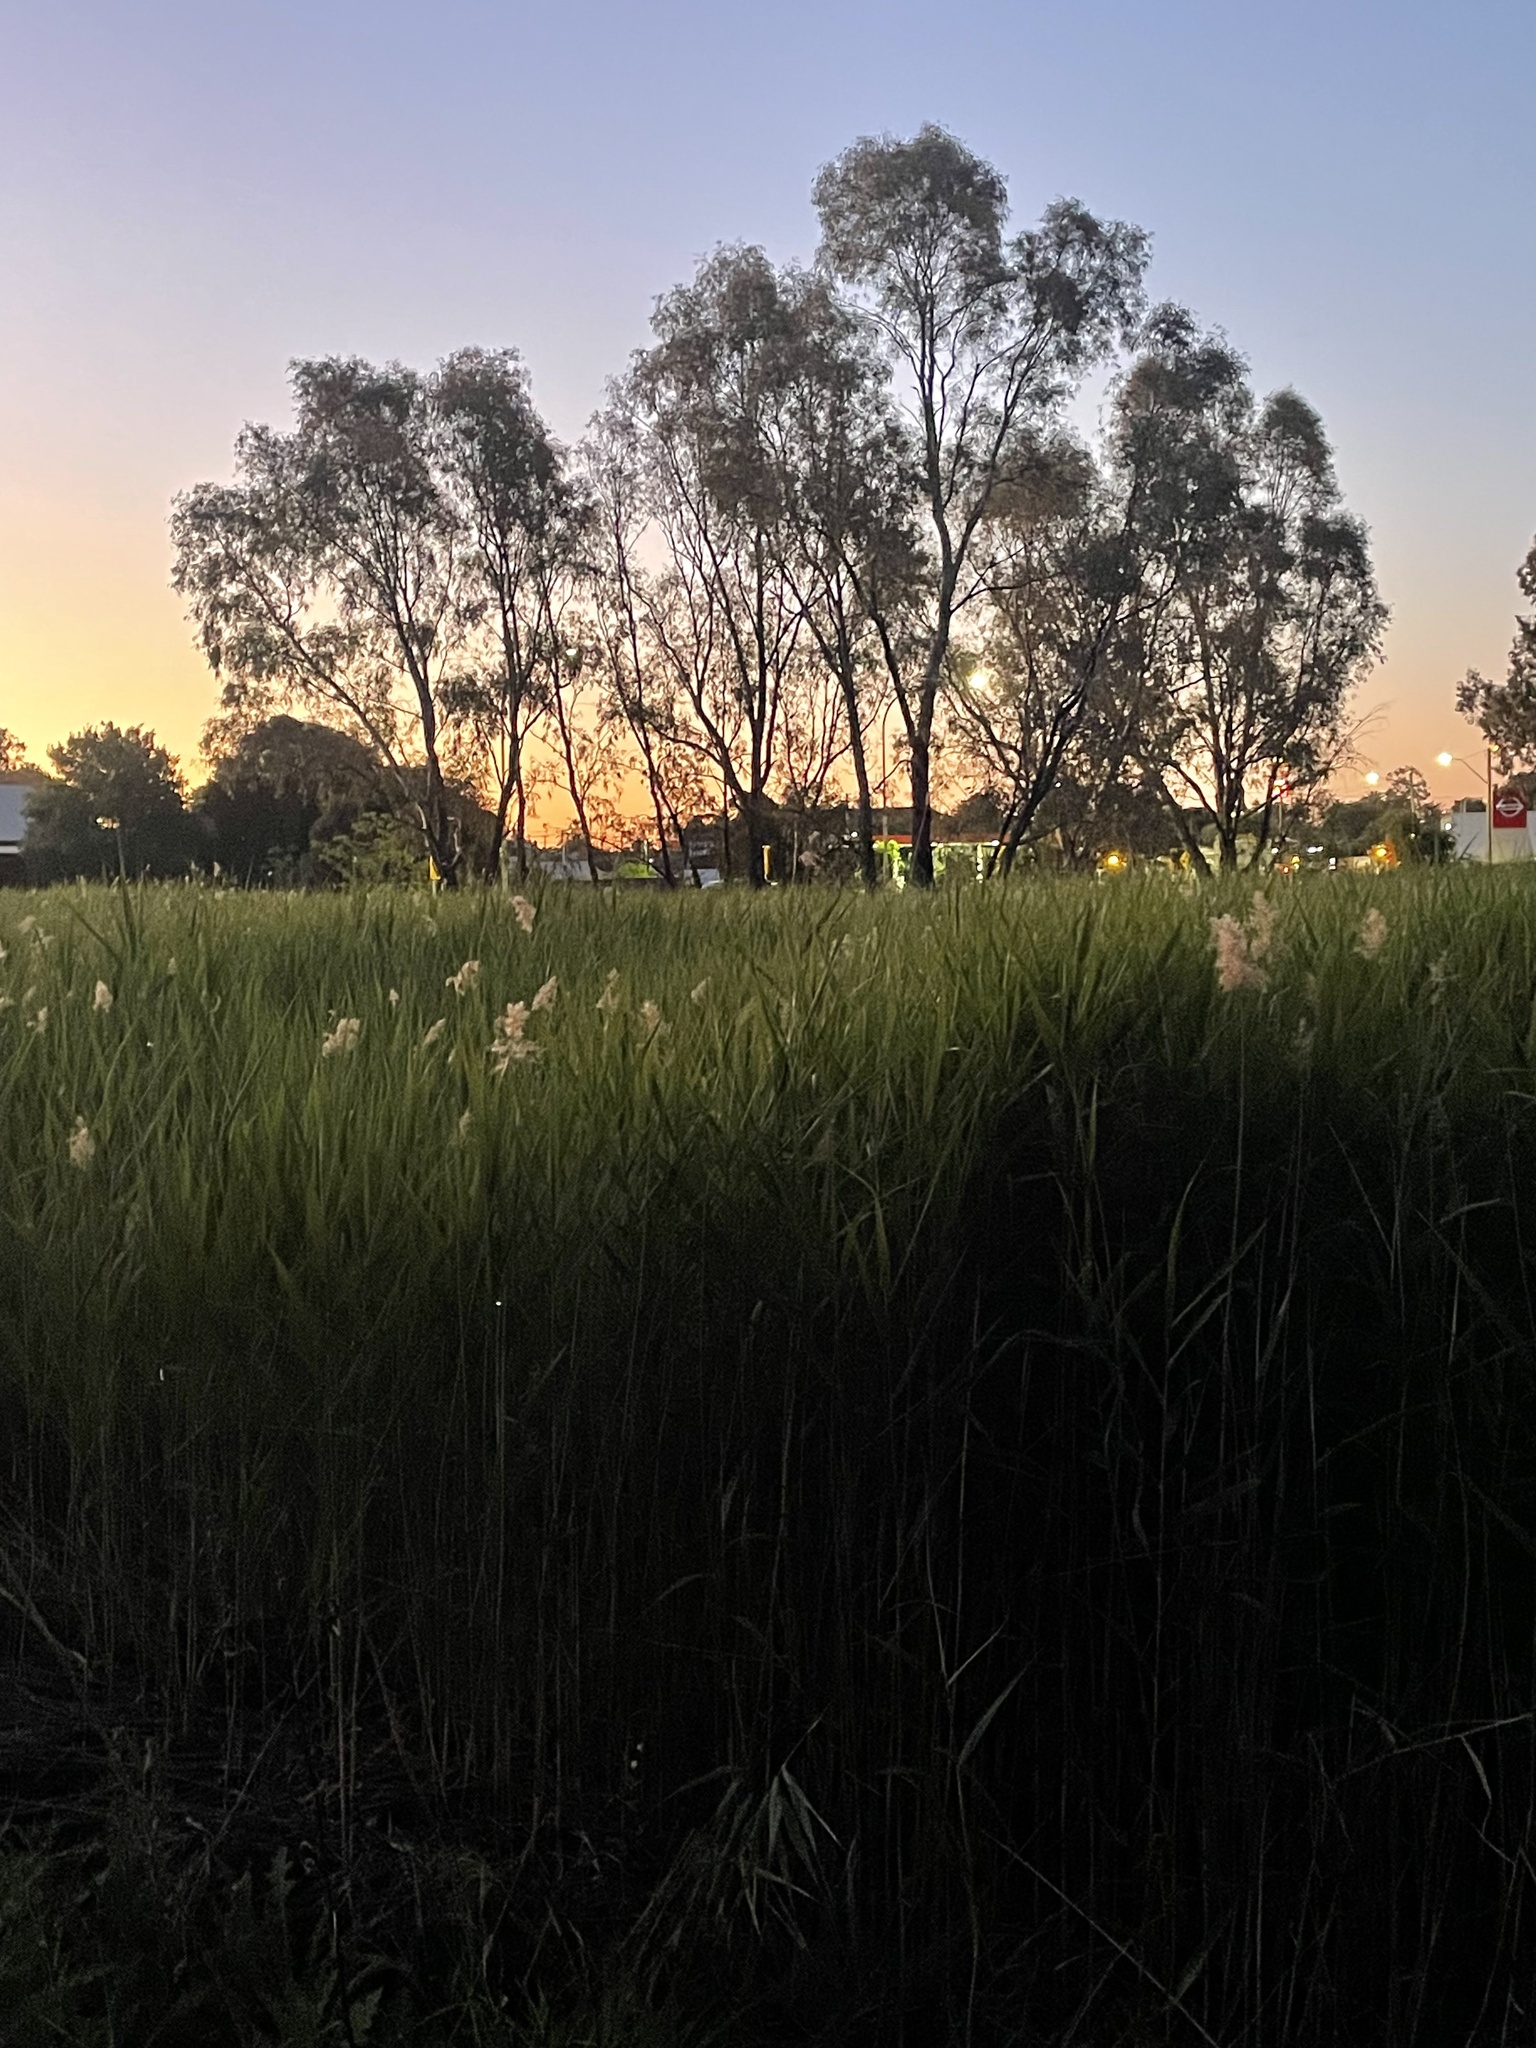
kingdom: Plantae
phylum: Tracheophyta
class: Liliopsida
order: Poales
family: Poaceae
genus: Phragmites
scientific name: Phragmites australis
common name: Common reed
